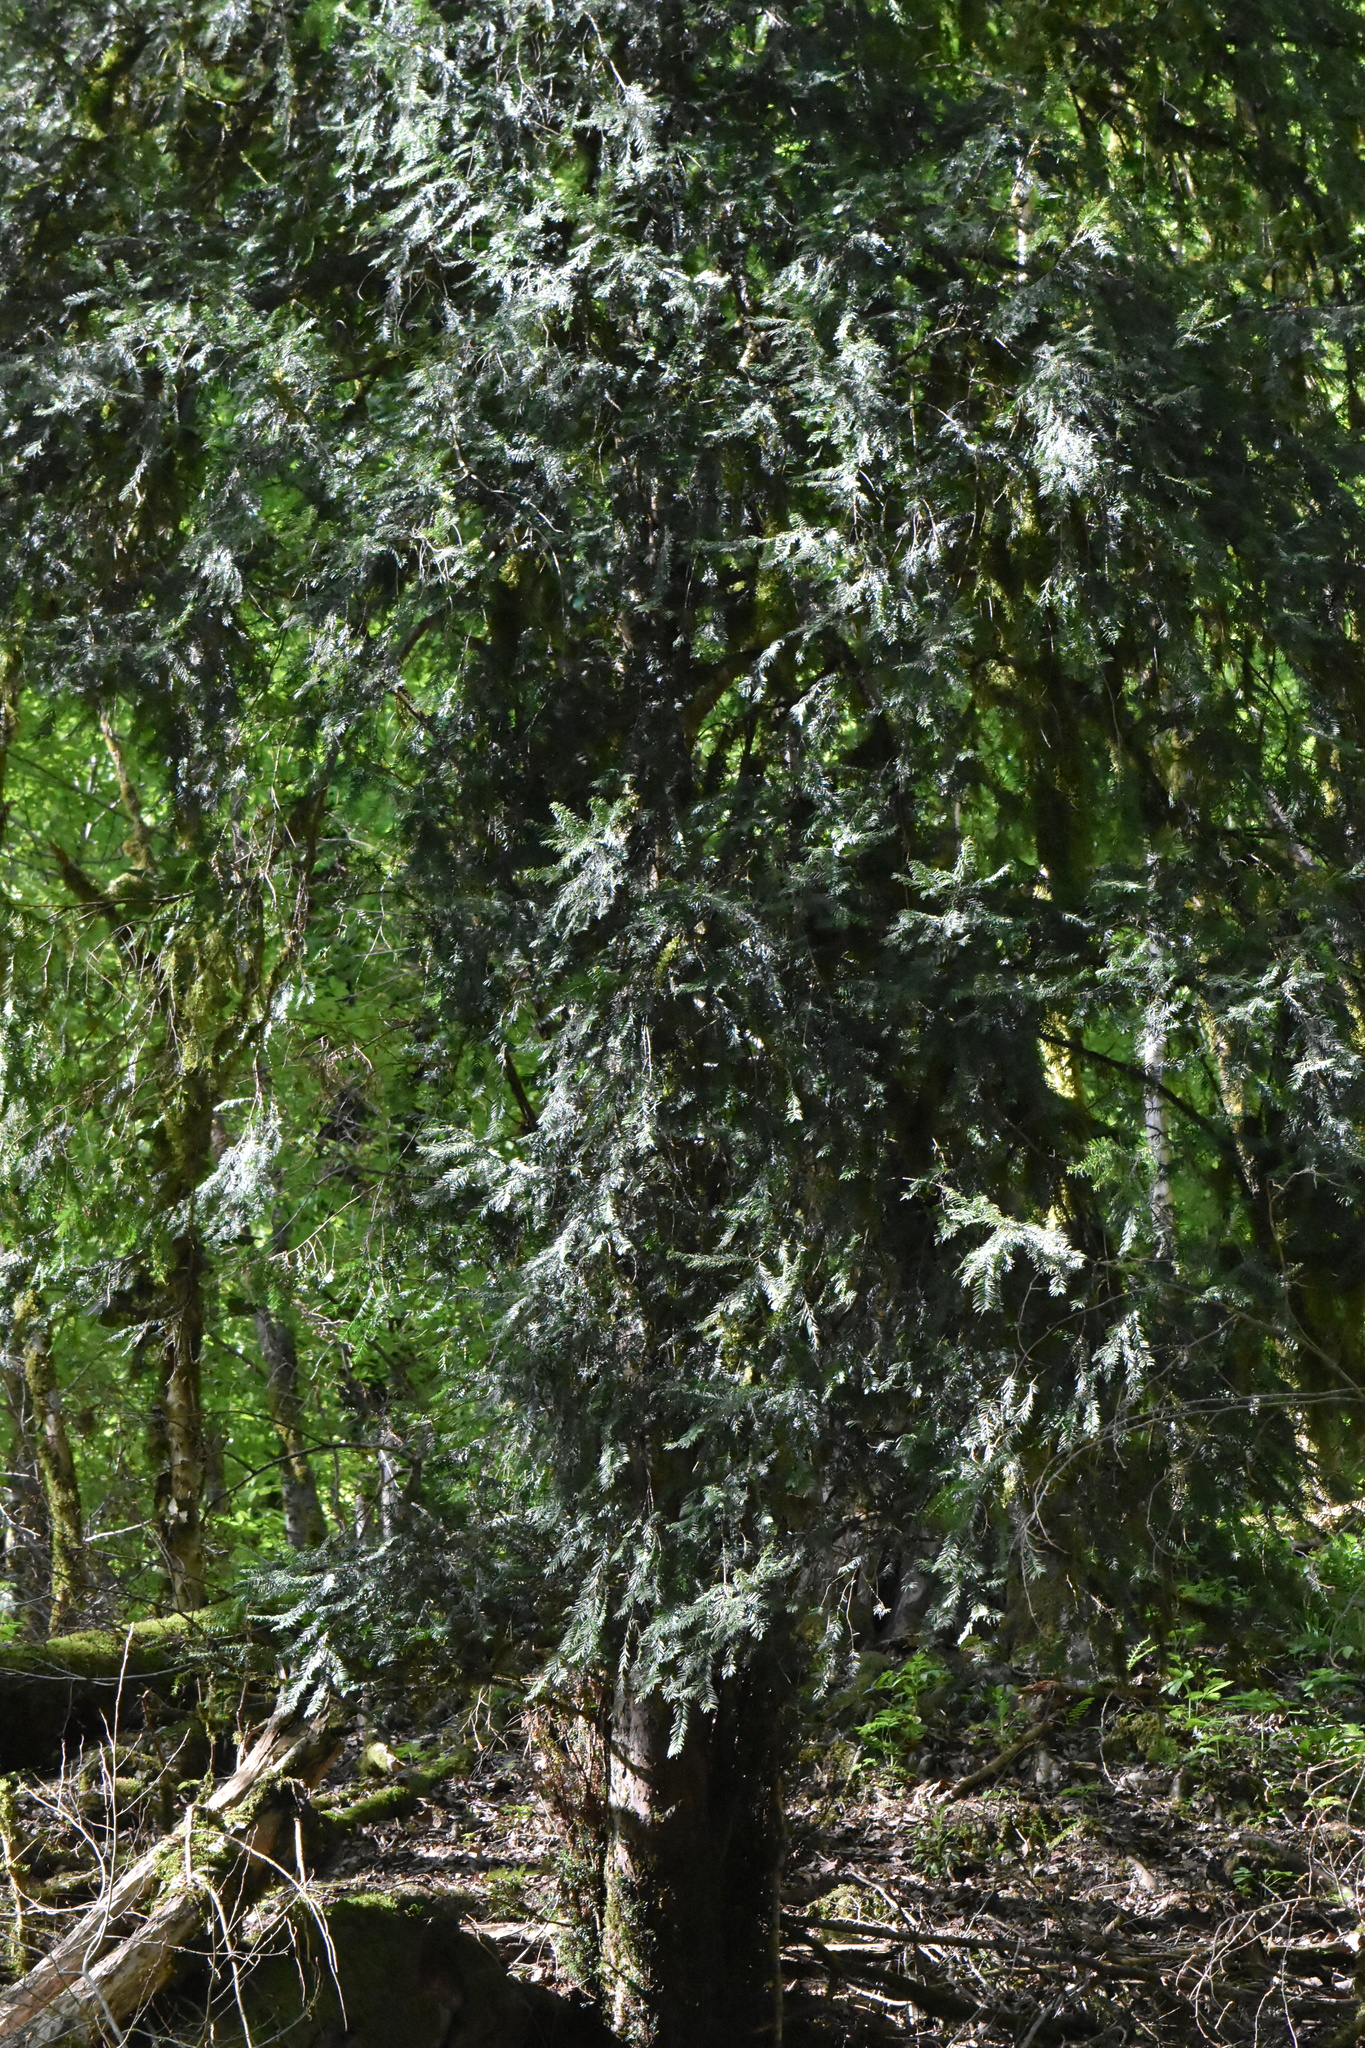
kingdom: Plantae
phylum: Tracheophyta
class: Pinopsida
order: Pinales
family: Taxaceae
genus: Taxus
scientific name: Taxus baccata
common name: Yew
